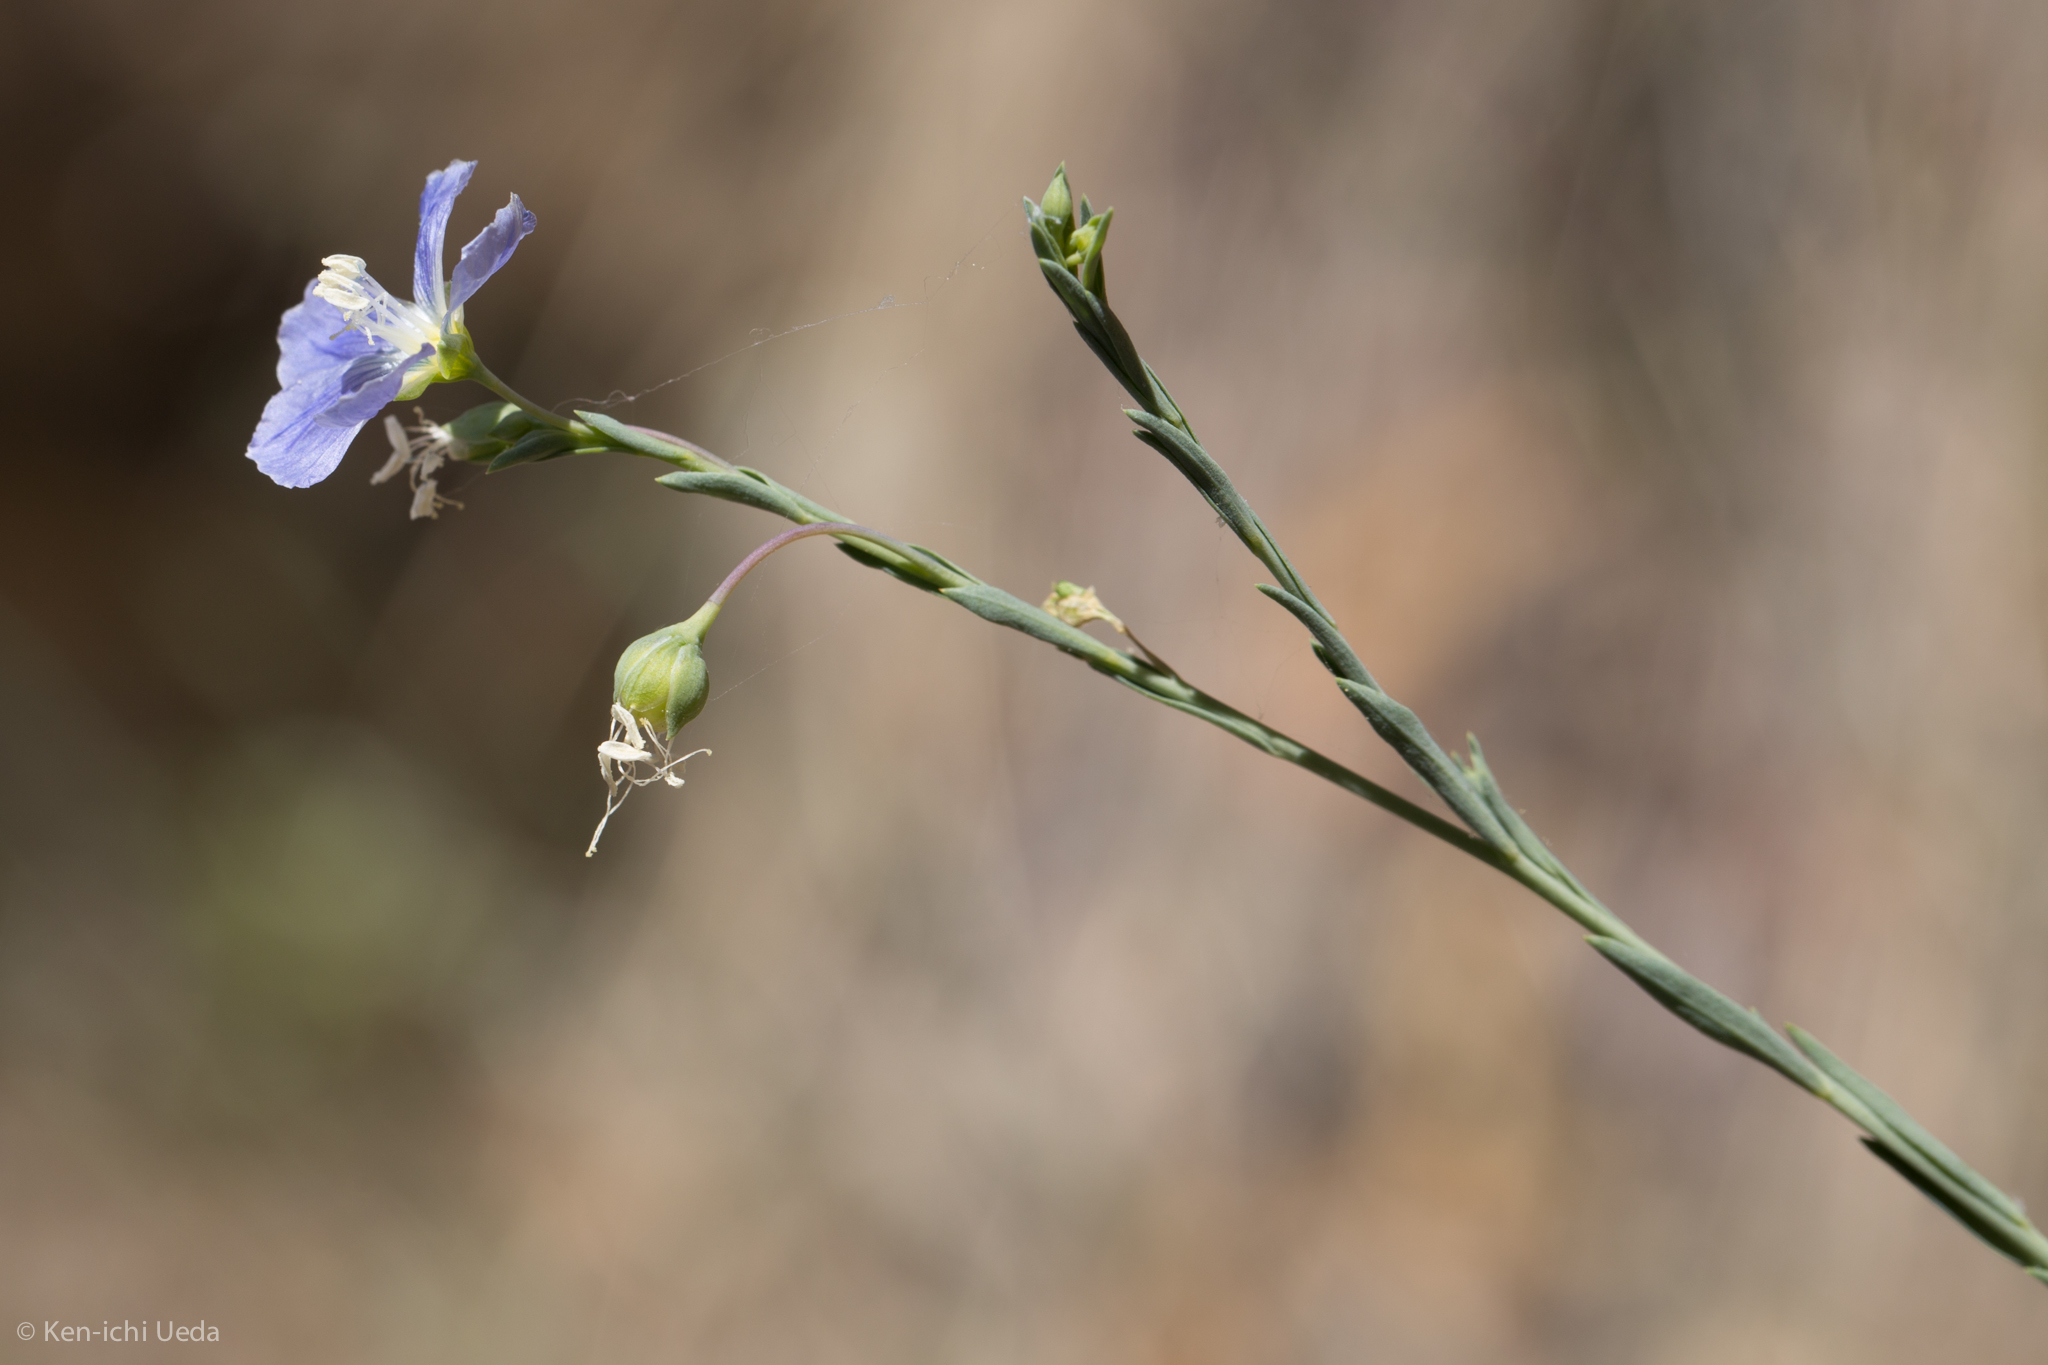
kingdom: Plantae
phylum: Tracheophyta
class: Magnoliopsida
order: Malpighiales
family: Linaceae
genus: Linum
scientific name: Linum lewisii
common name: Prairie flax
